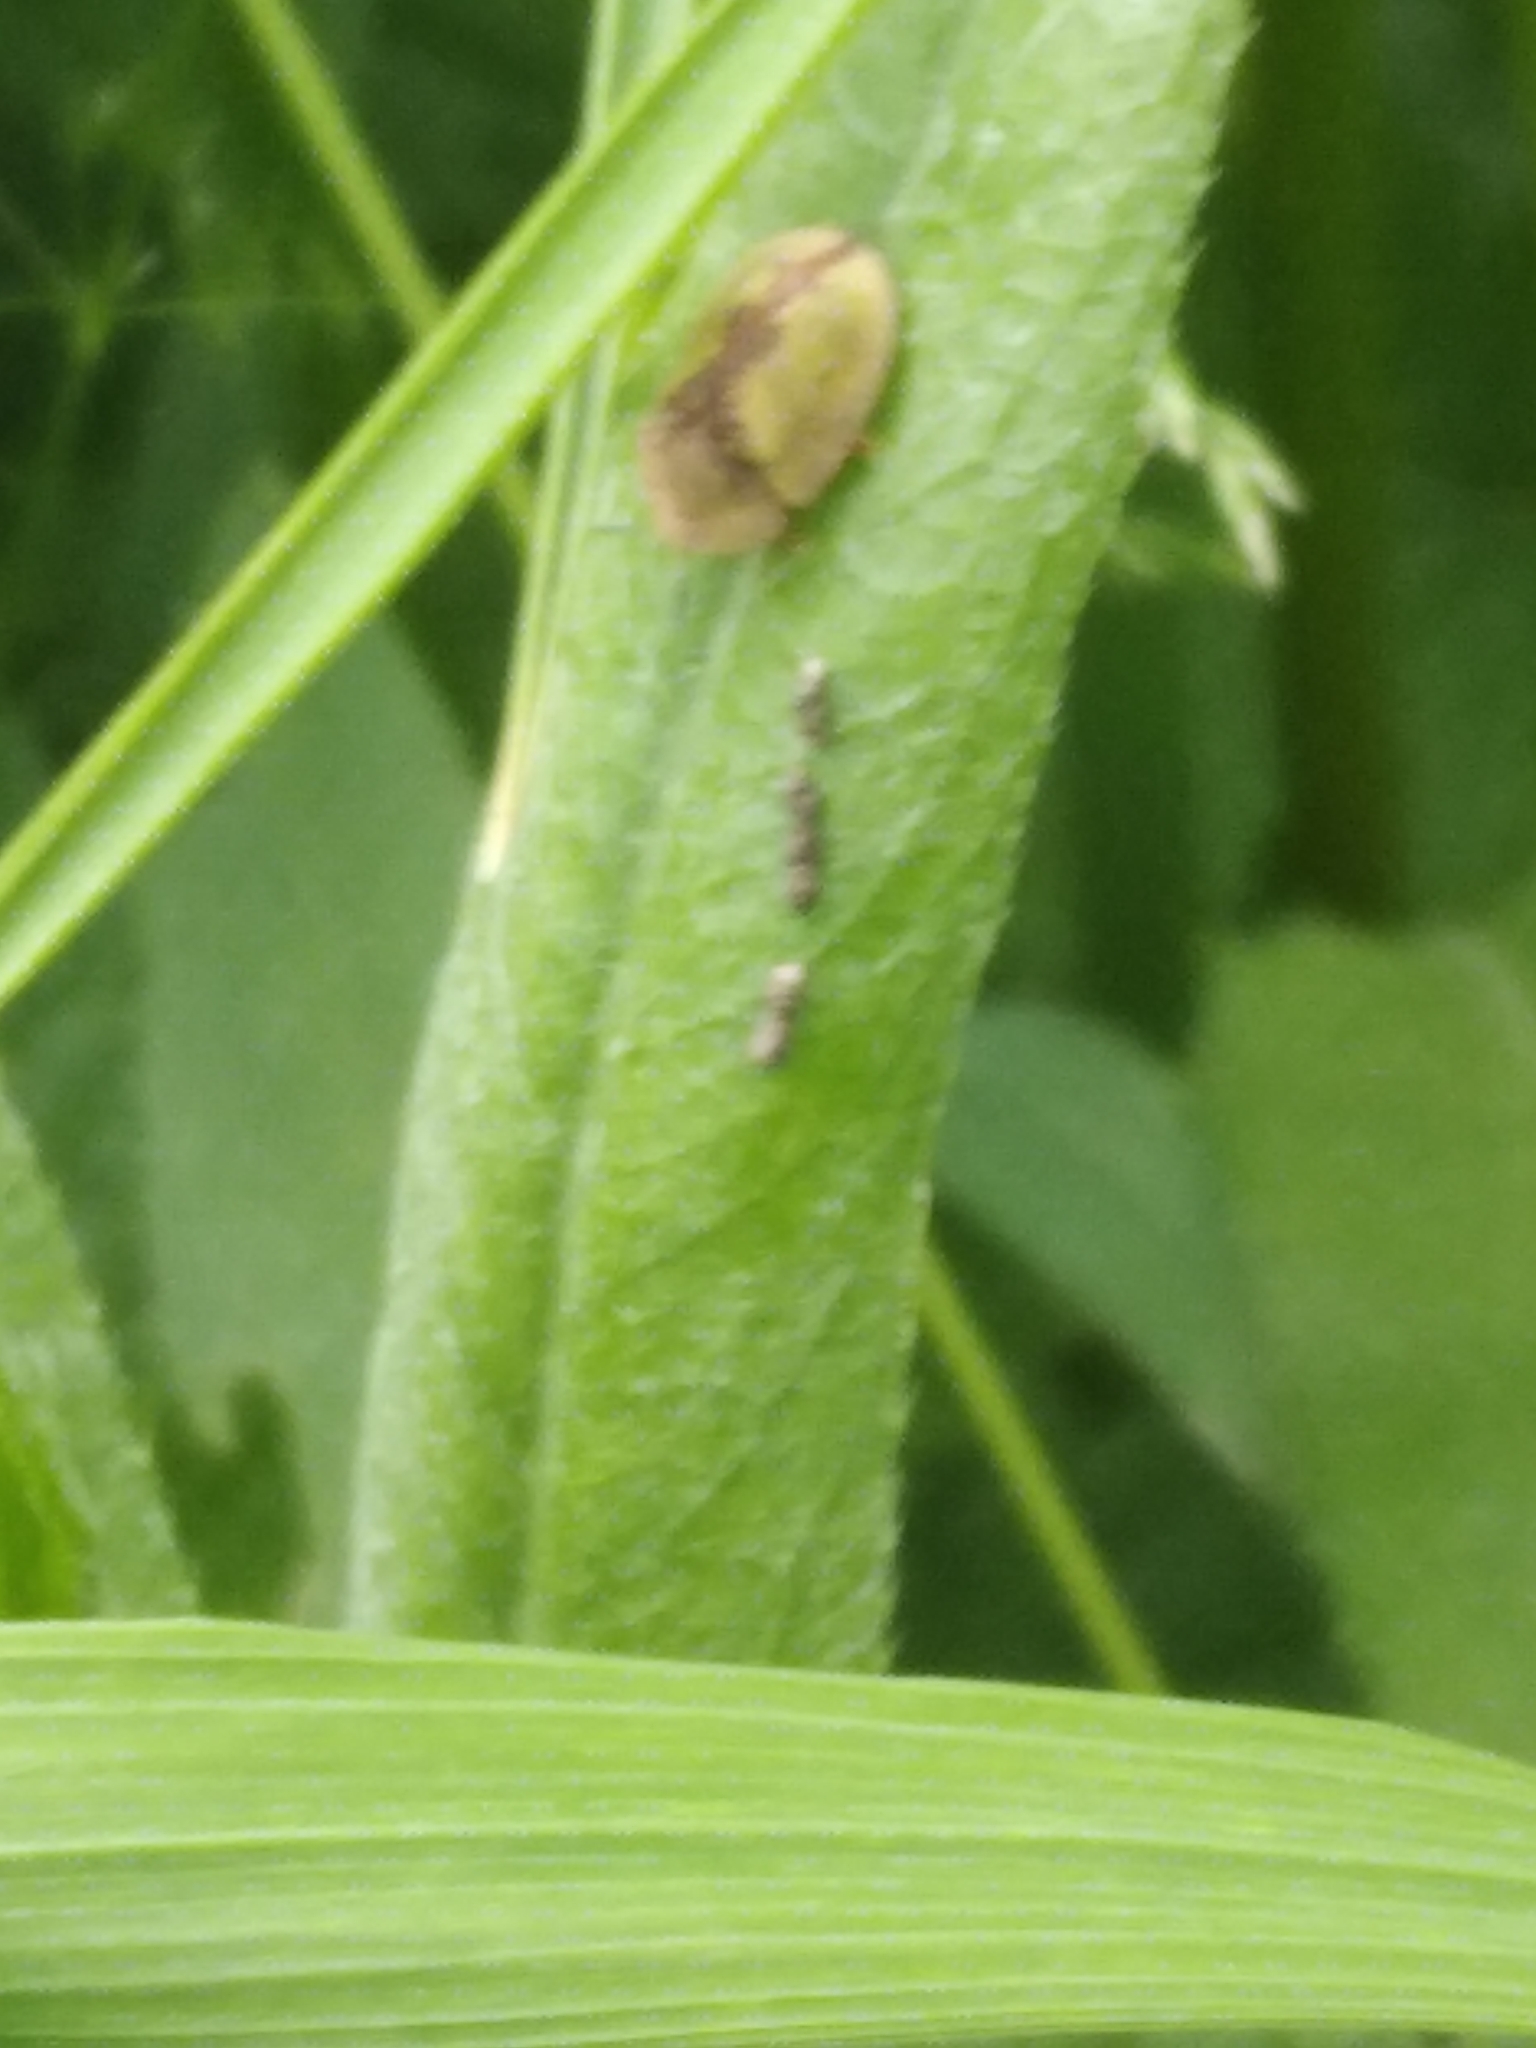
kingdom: Animalia
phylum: Arthropoda
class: Insecta
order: Coleoptera
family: Chrysomelidae
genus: Cassida
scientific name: Cassida vibex
